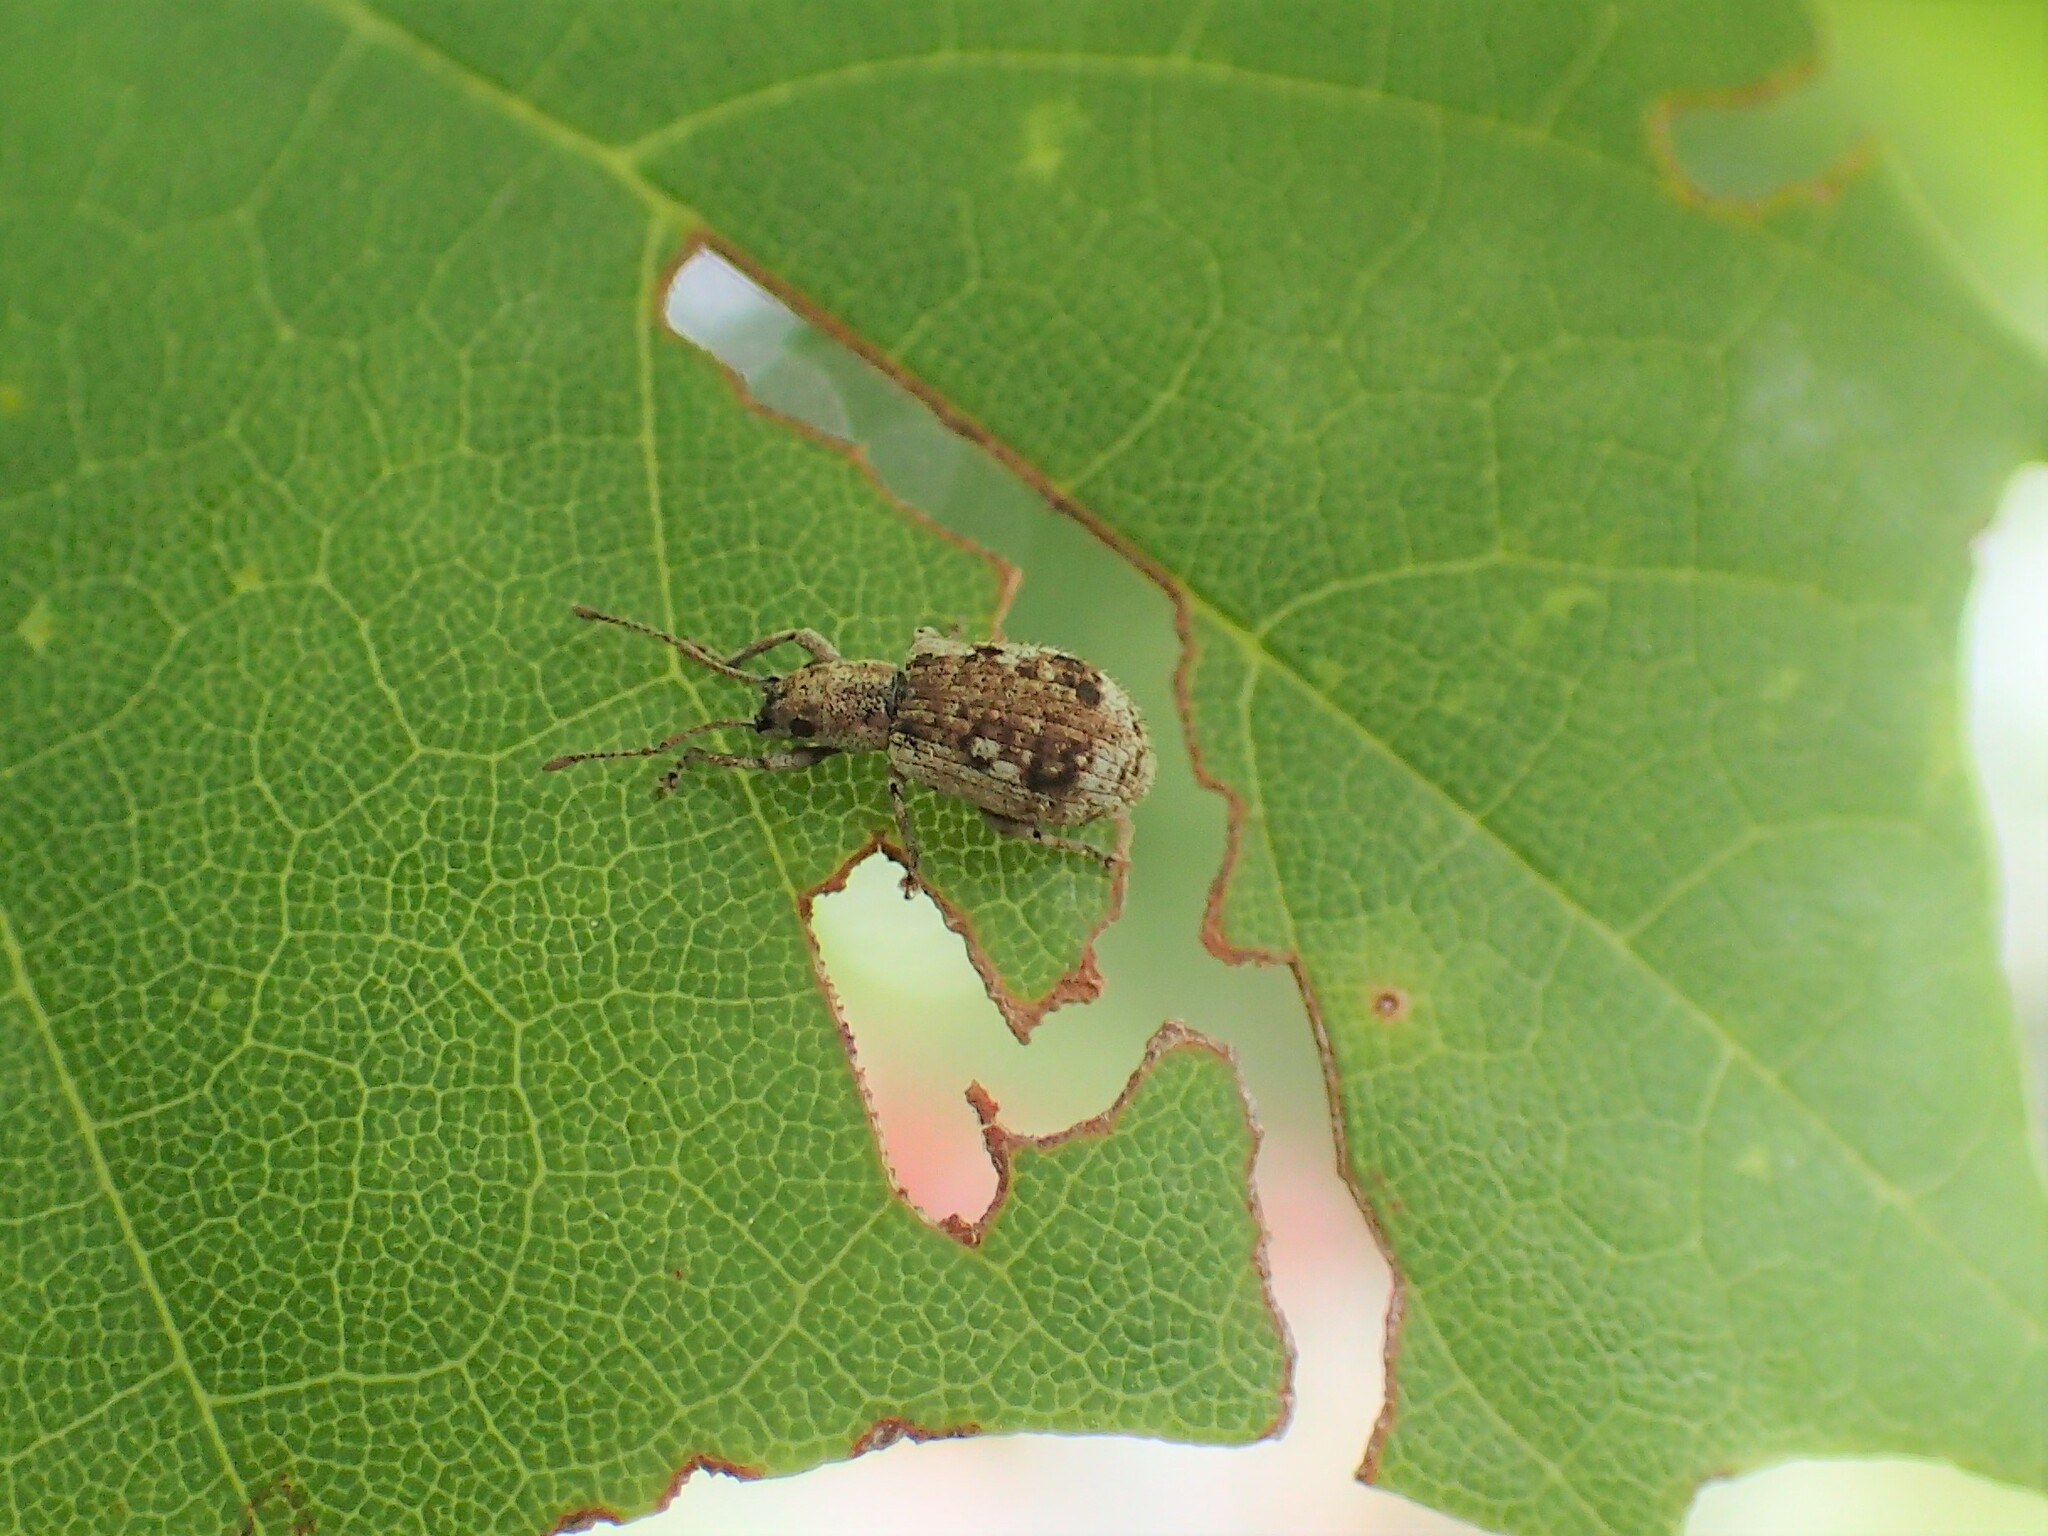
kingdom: Animalia
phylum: Arthropoda
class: Insecta
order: Coleoptera
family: Curculionidae
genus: Pseudoedophrys
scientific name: Pseudoedophrys hilleri
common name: Weevil
